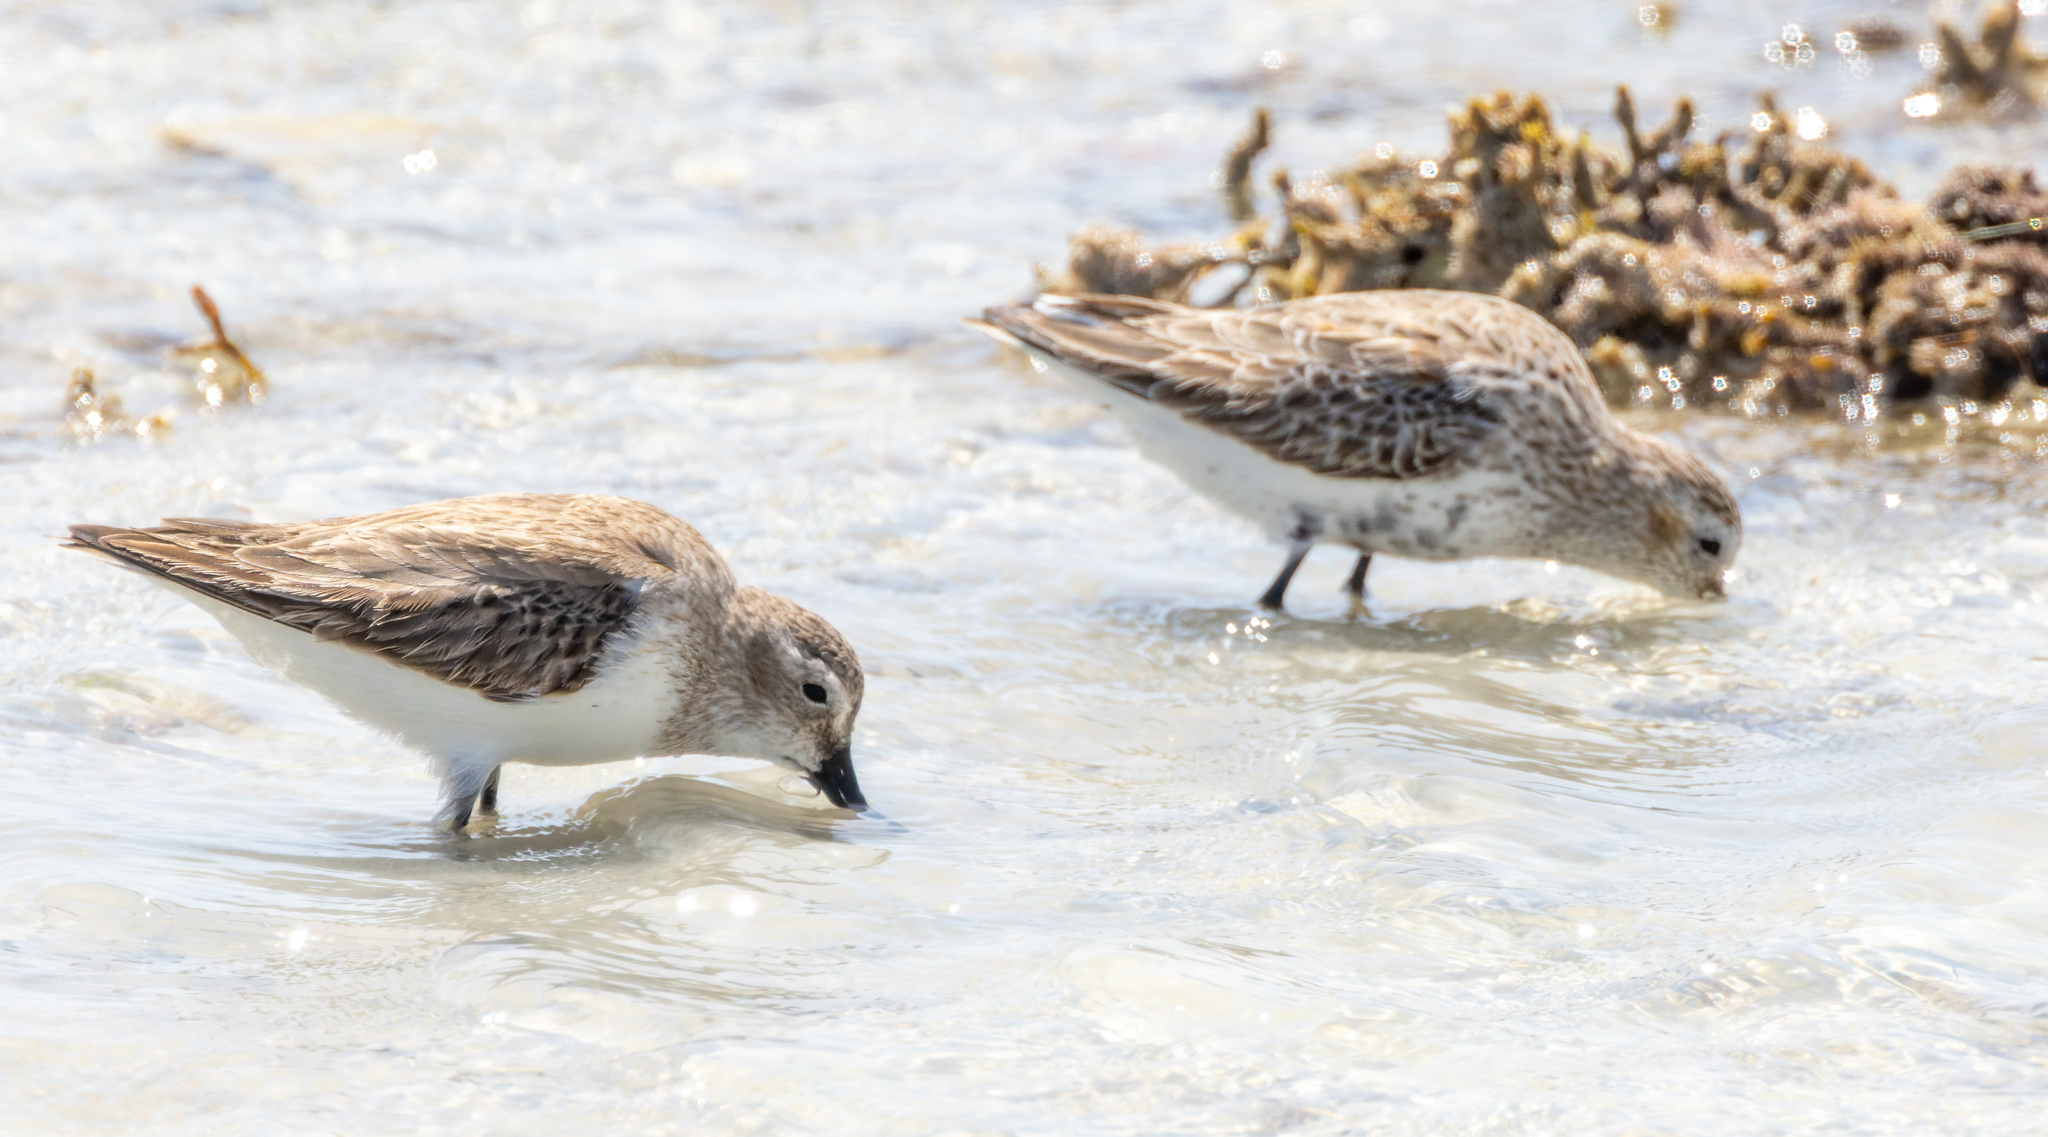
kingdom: Animalia
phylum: Chordata
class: Aves
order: Charadriiformes
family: Scolopacidae
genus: Calidris
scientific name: Calidris alpina
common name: Dunlin
